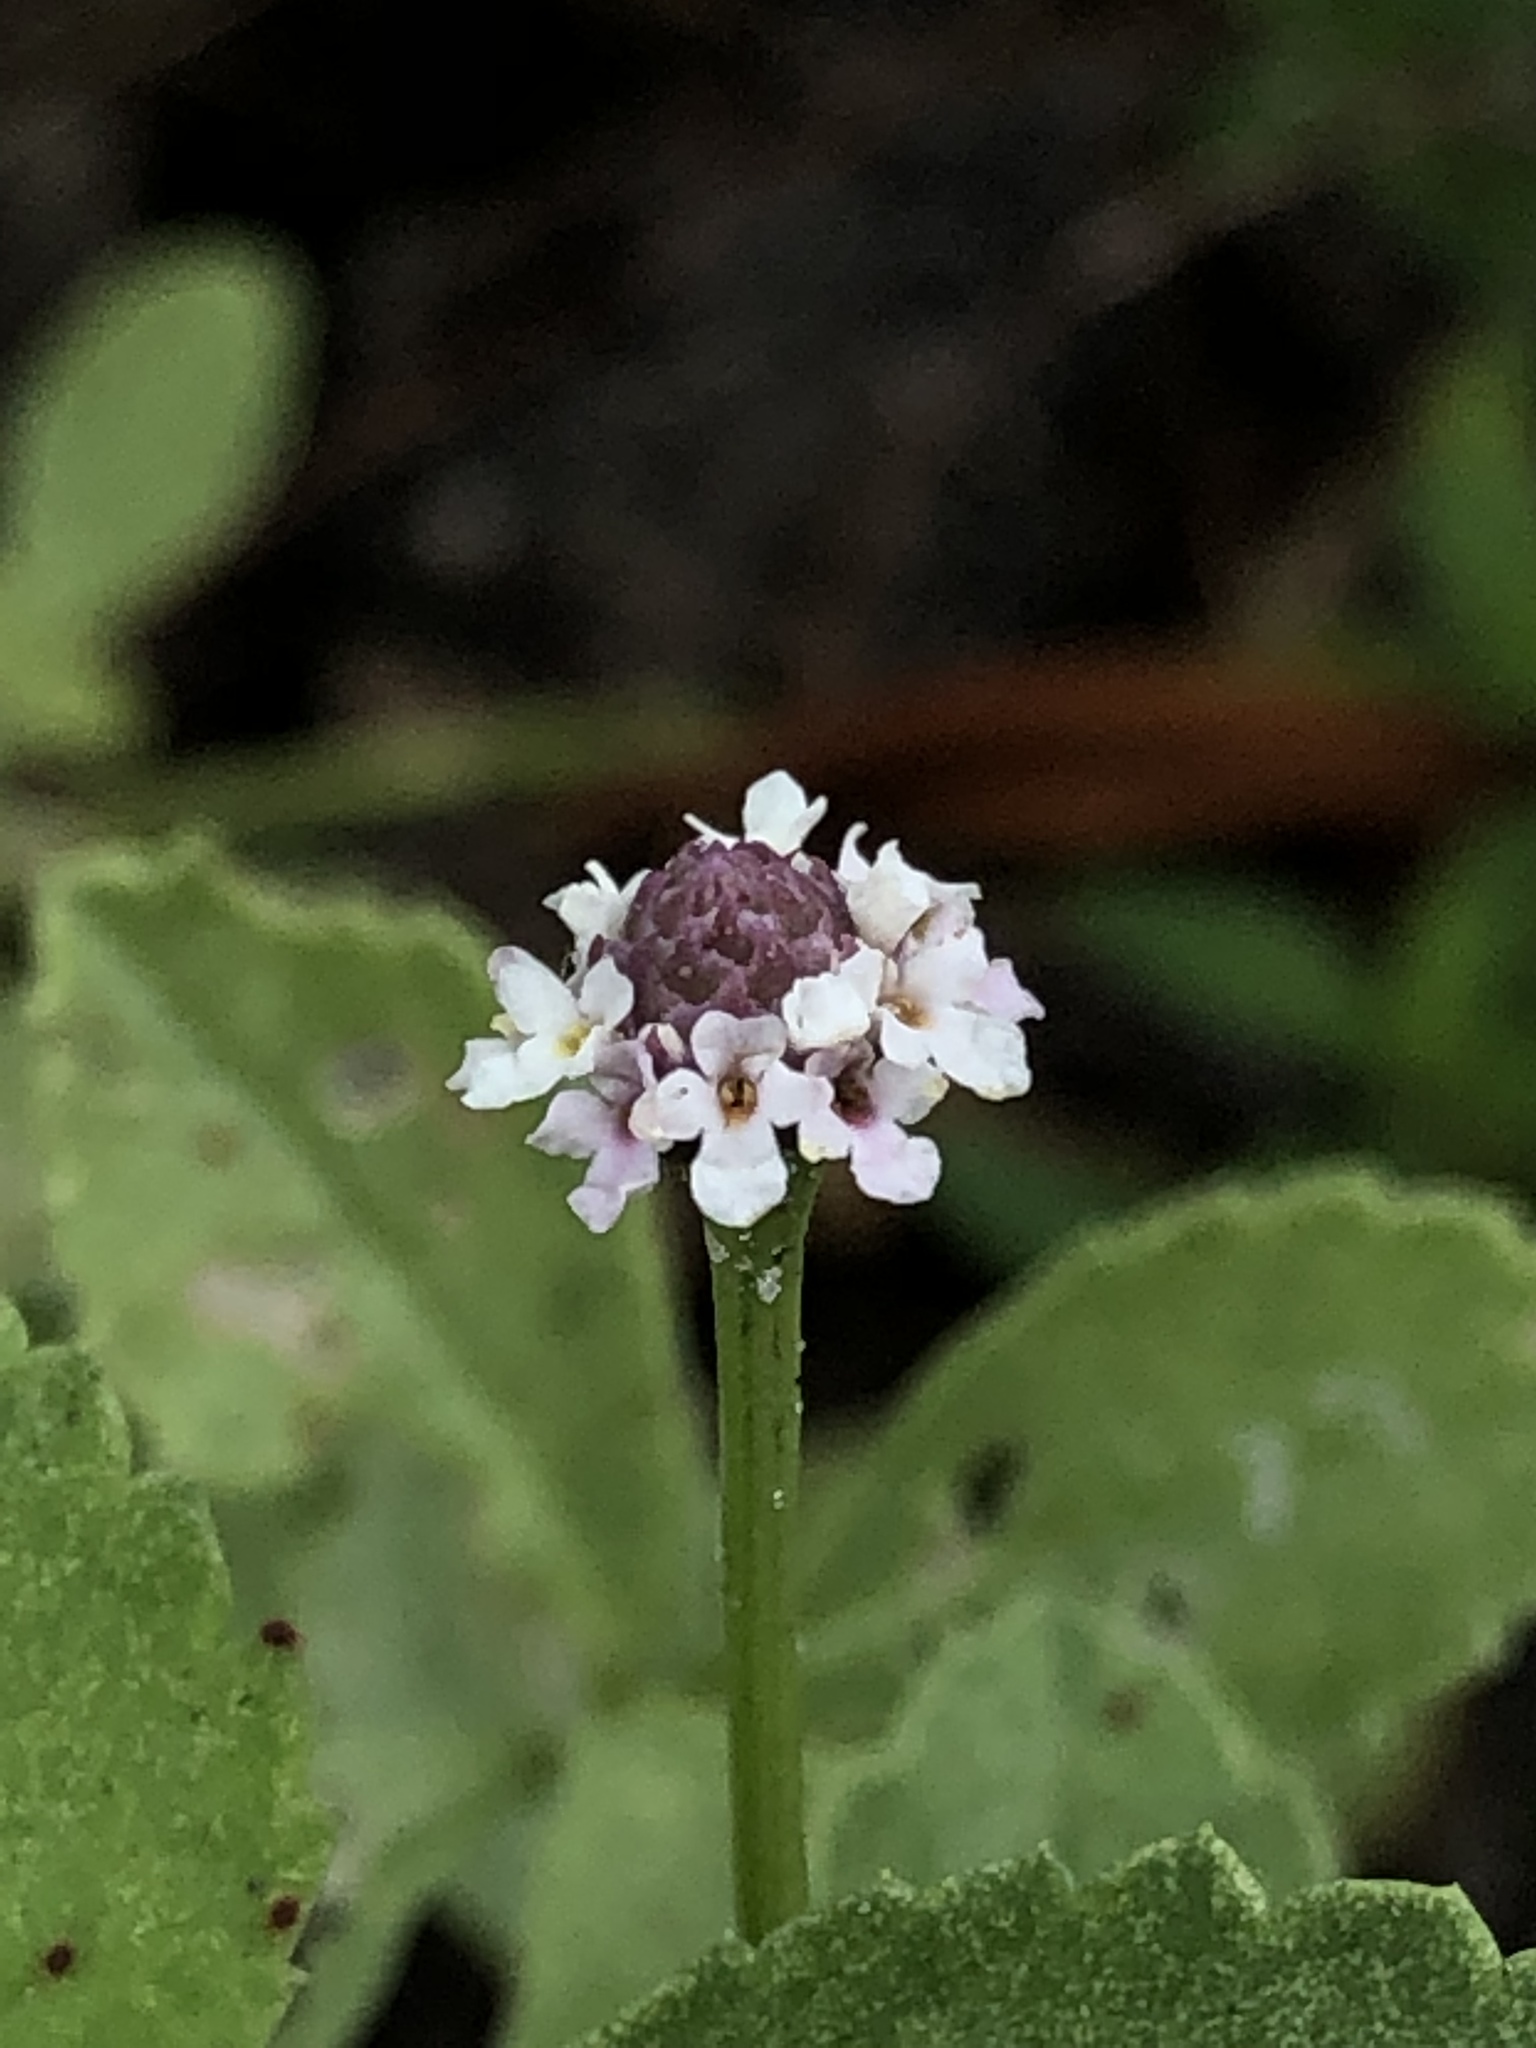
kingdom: Plantae
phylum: Tracheophyta
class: Magnoliopsida
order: Lamiales
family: Verbenaceae
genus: Phyla
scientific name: Phyla nodiflora
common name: Frogfruit
